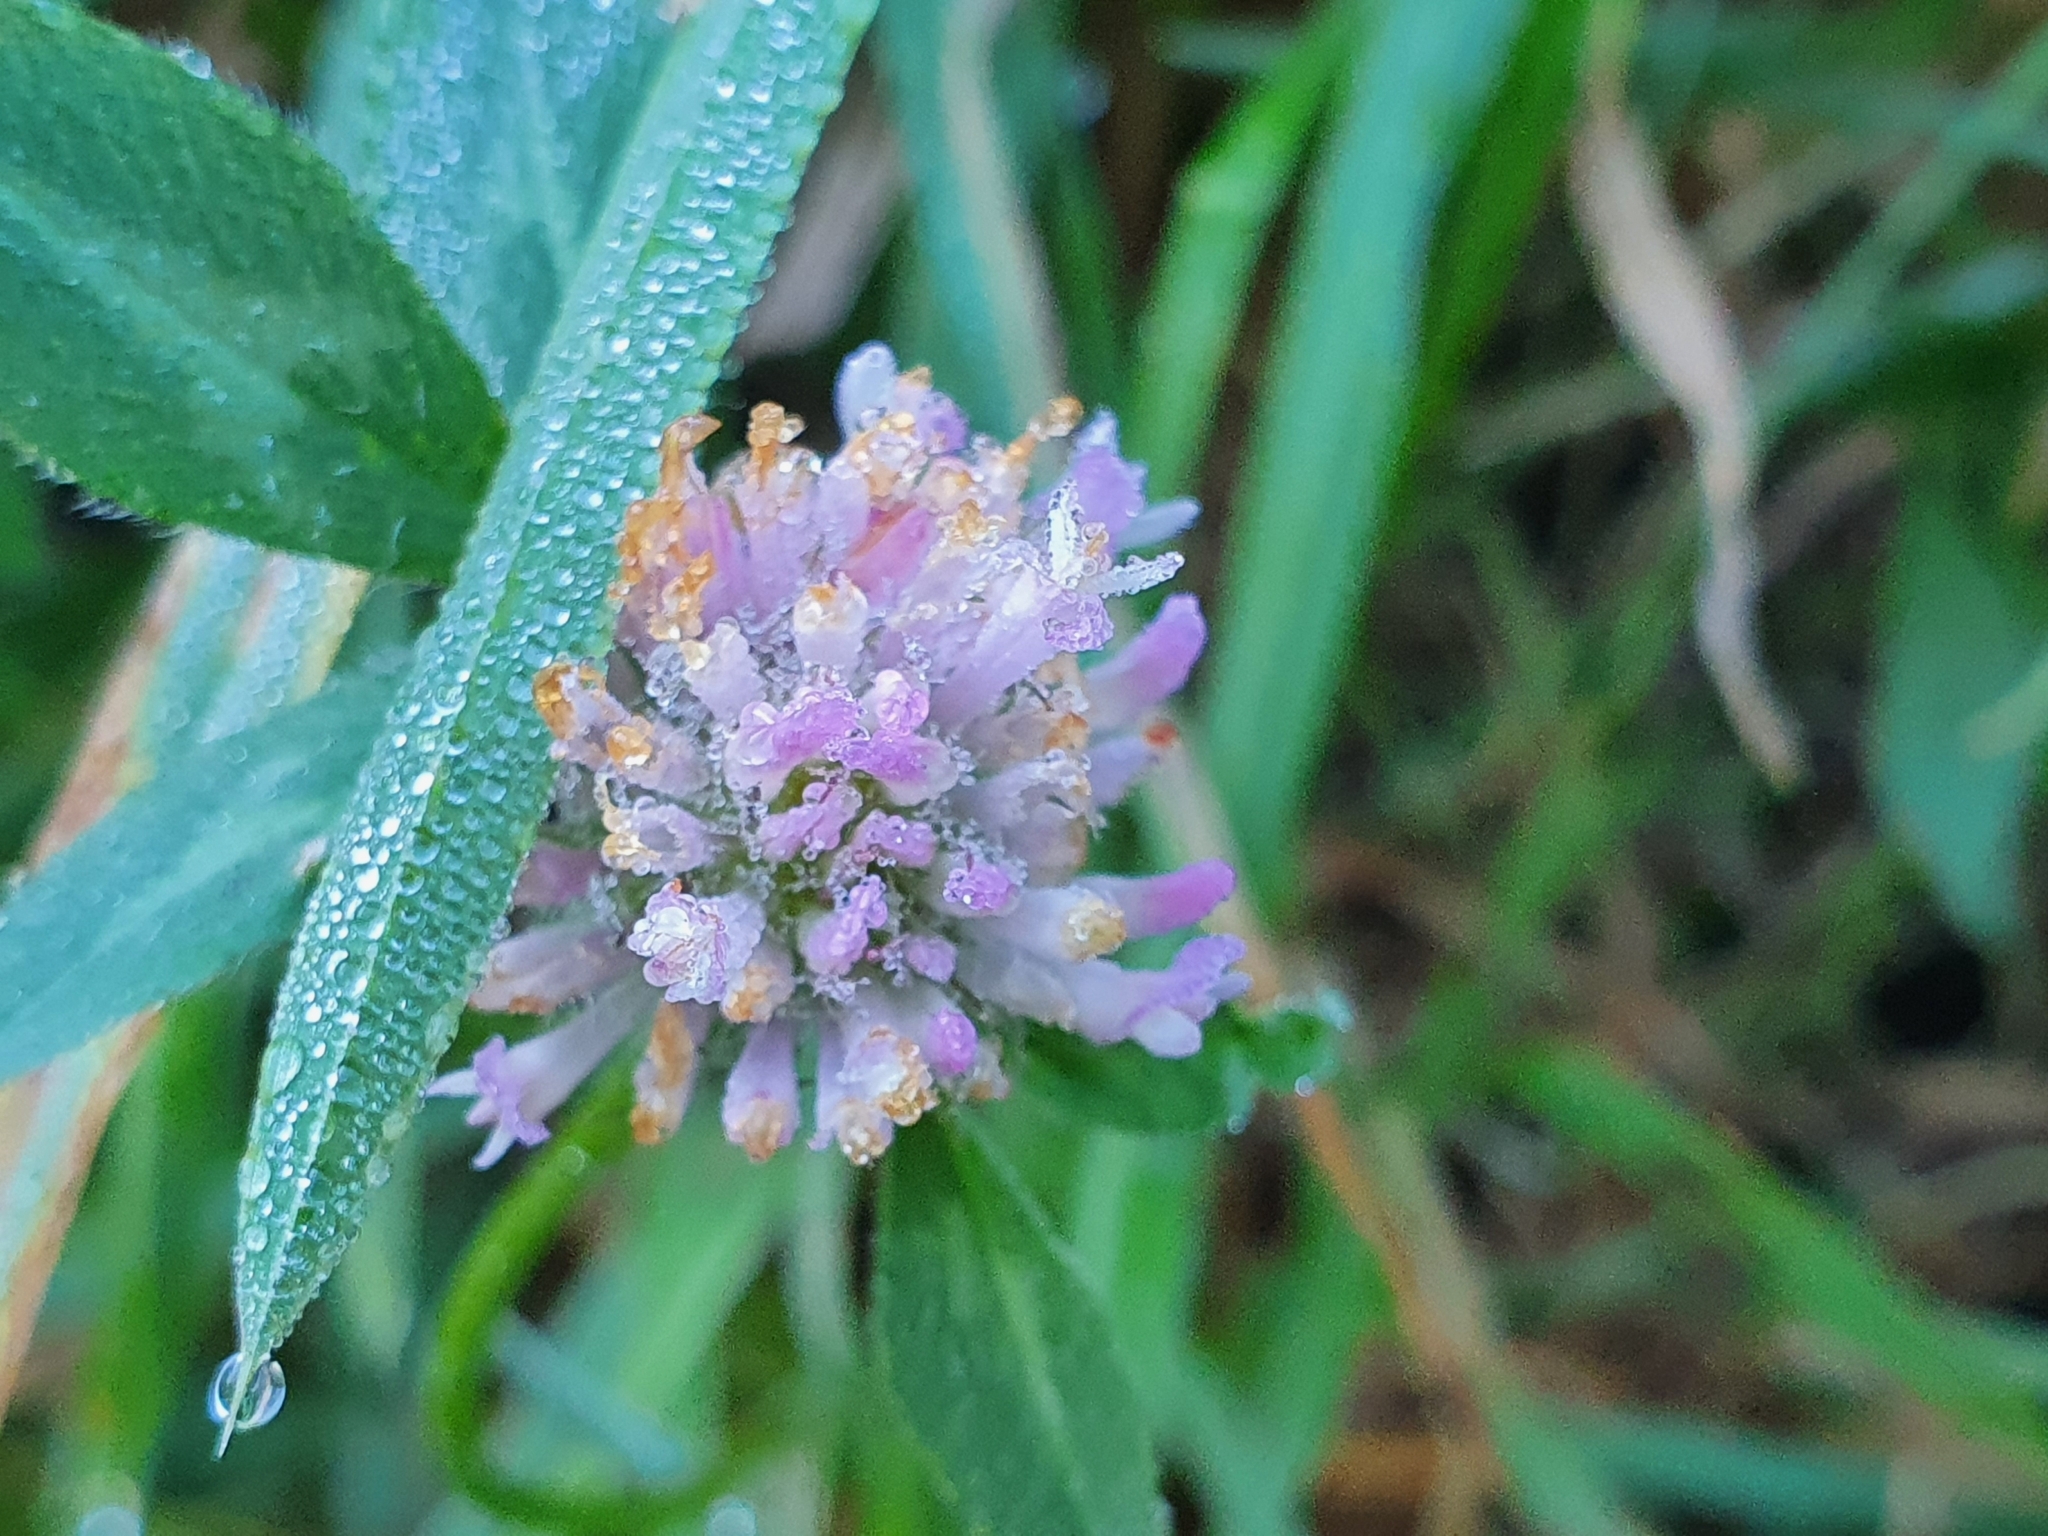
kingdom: Plantae
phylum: Tracheophyta
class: Magnoliopsida
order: Fabales
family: Fabaceae
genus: Trifolium
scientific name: Trifolium pratense
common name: Red clover
